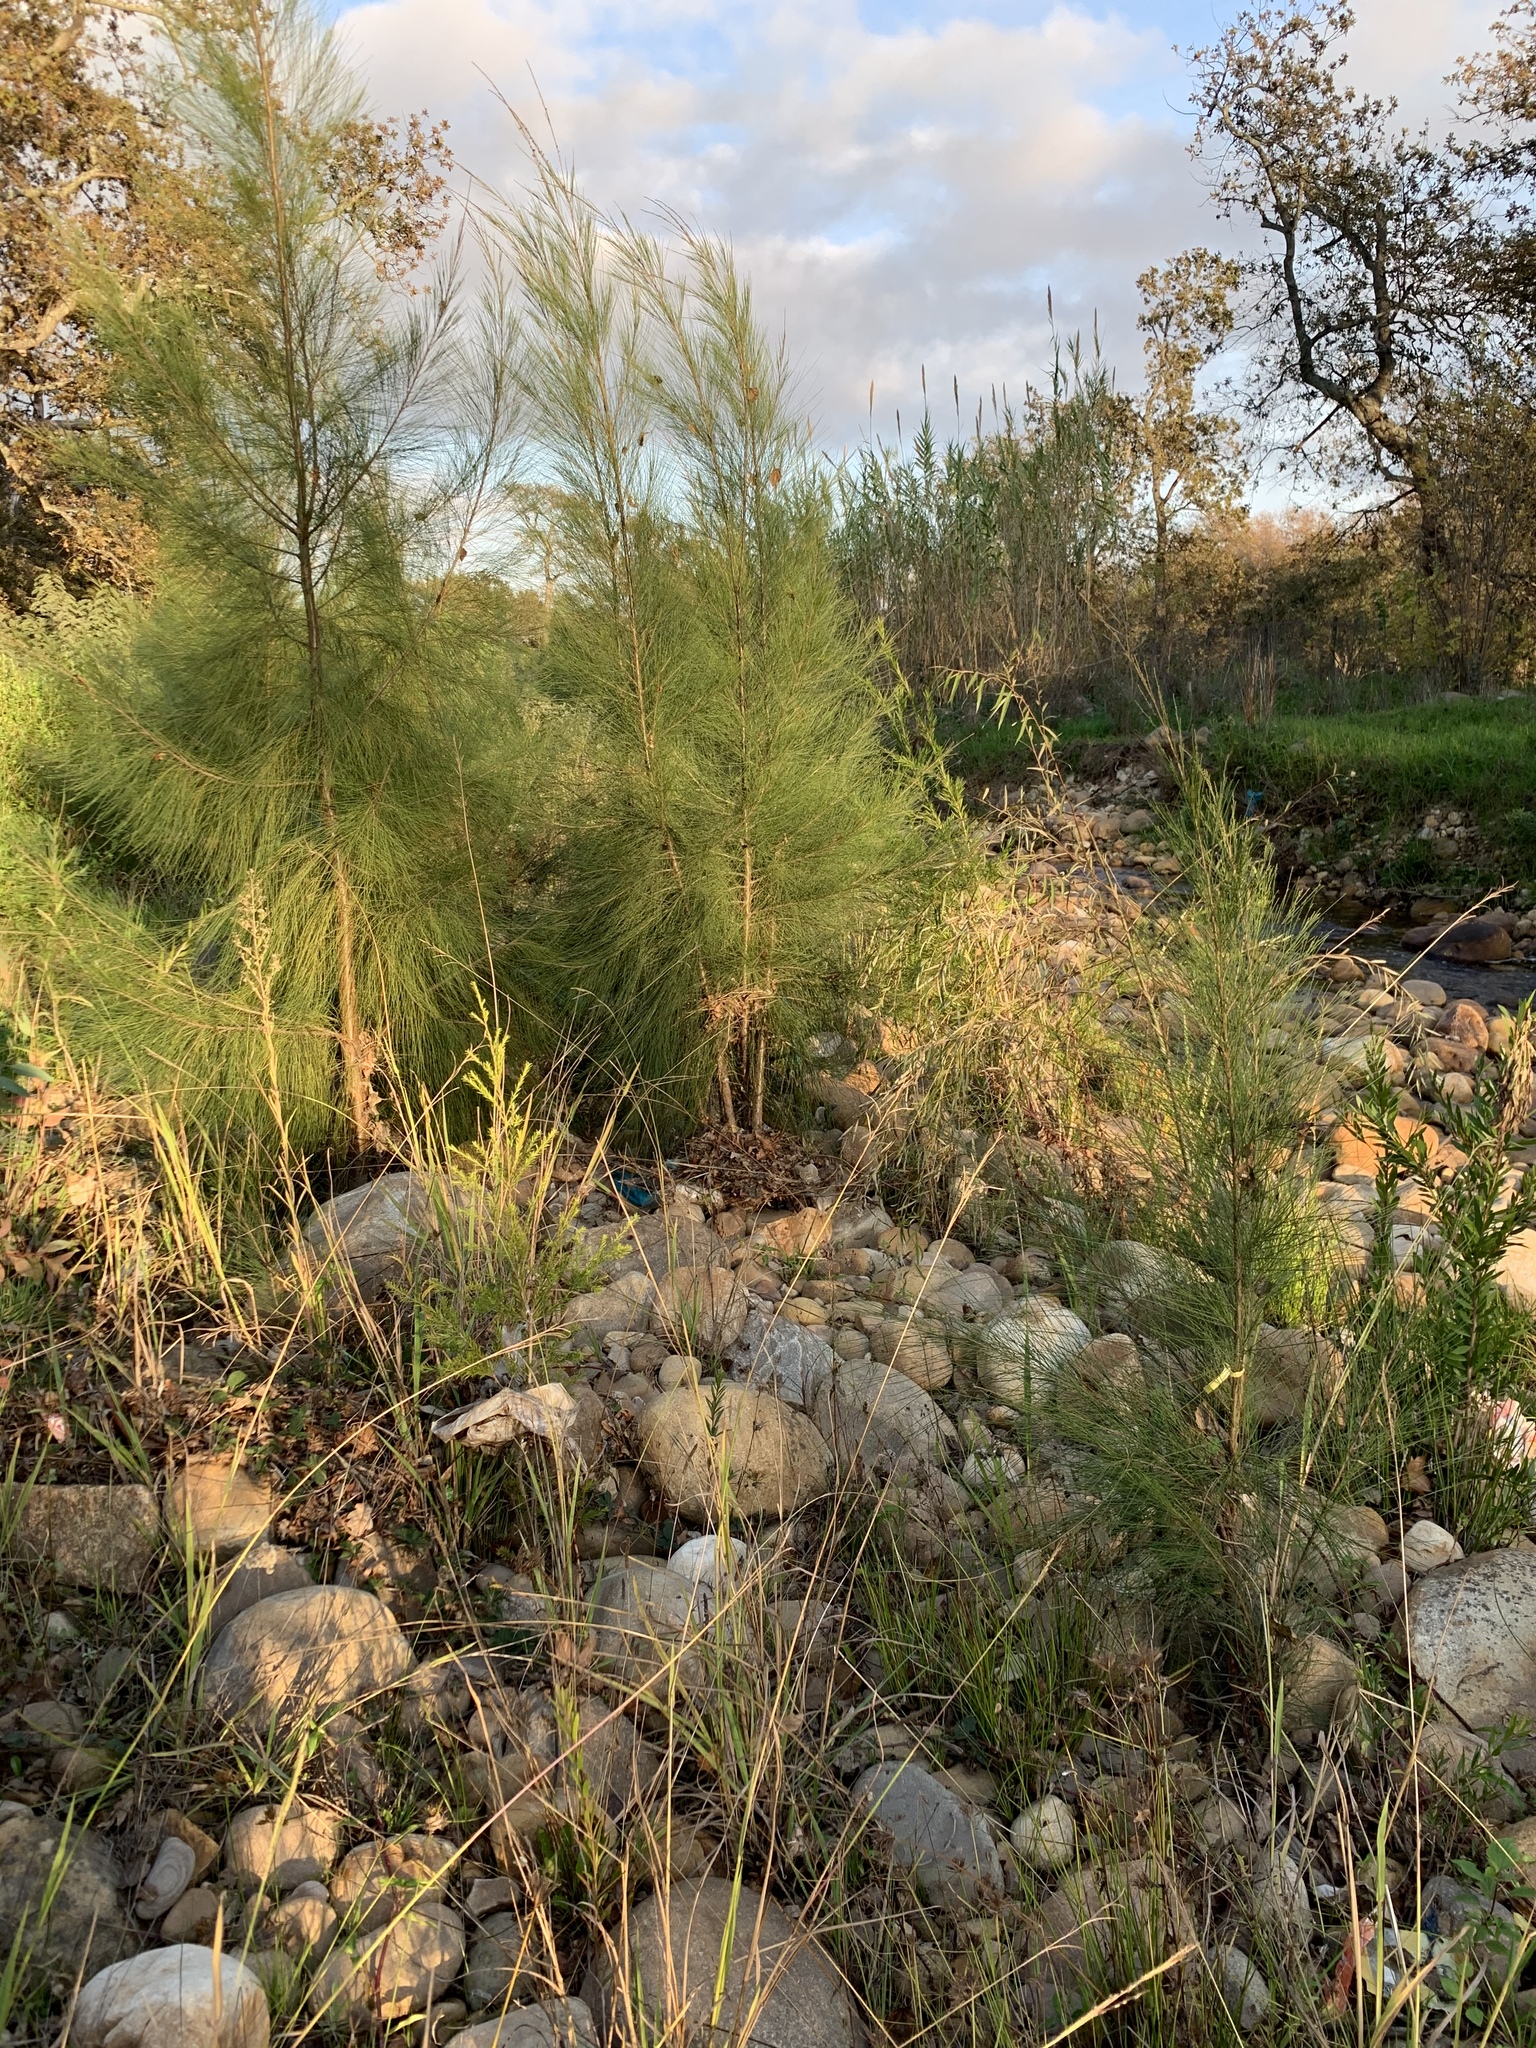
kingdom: Plantae
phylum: Tracheophyta
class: Magnoliopsida
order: Fagales
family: Casuarinaceae
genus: Casuarina
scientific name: Casuarina cunninghamiana
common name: River sheoak
